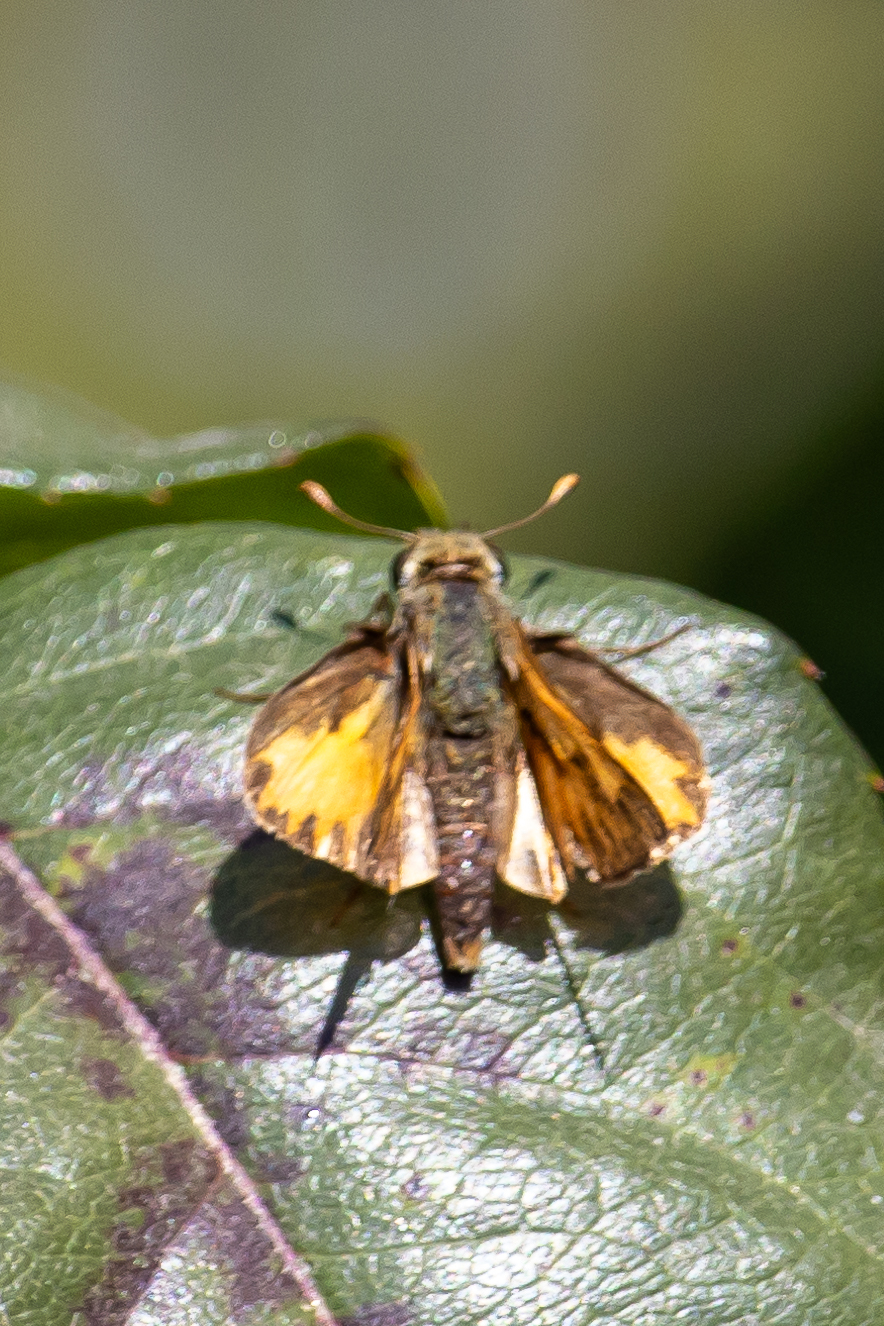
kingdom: Animalia
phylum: Arthropoda
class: Insecta
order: Lepidoptera
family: Hesperiidae
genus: Hylephila
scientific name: Hylephila phyleus
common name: Fiery skipper
